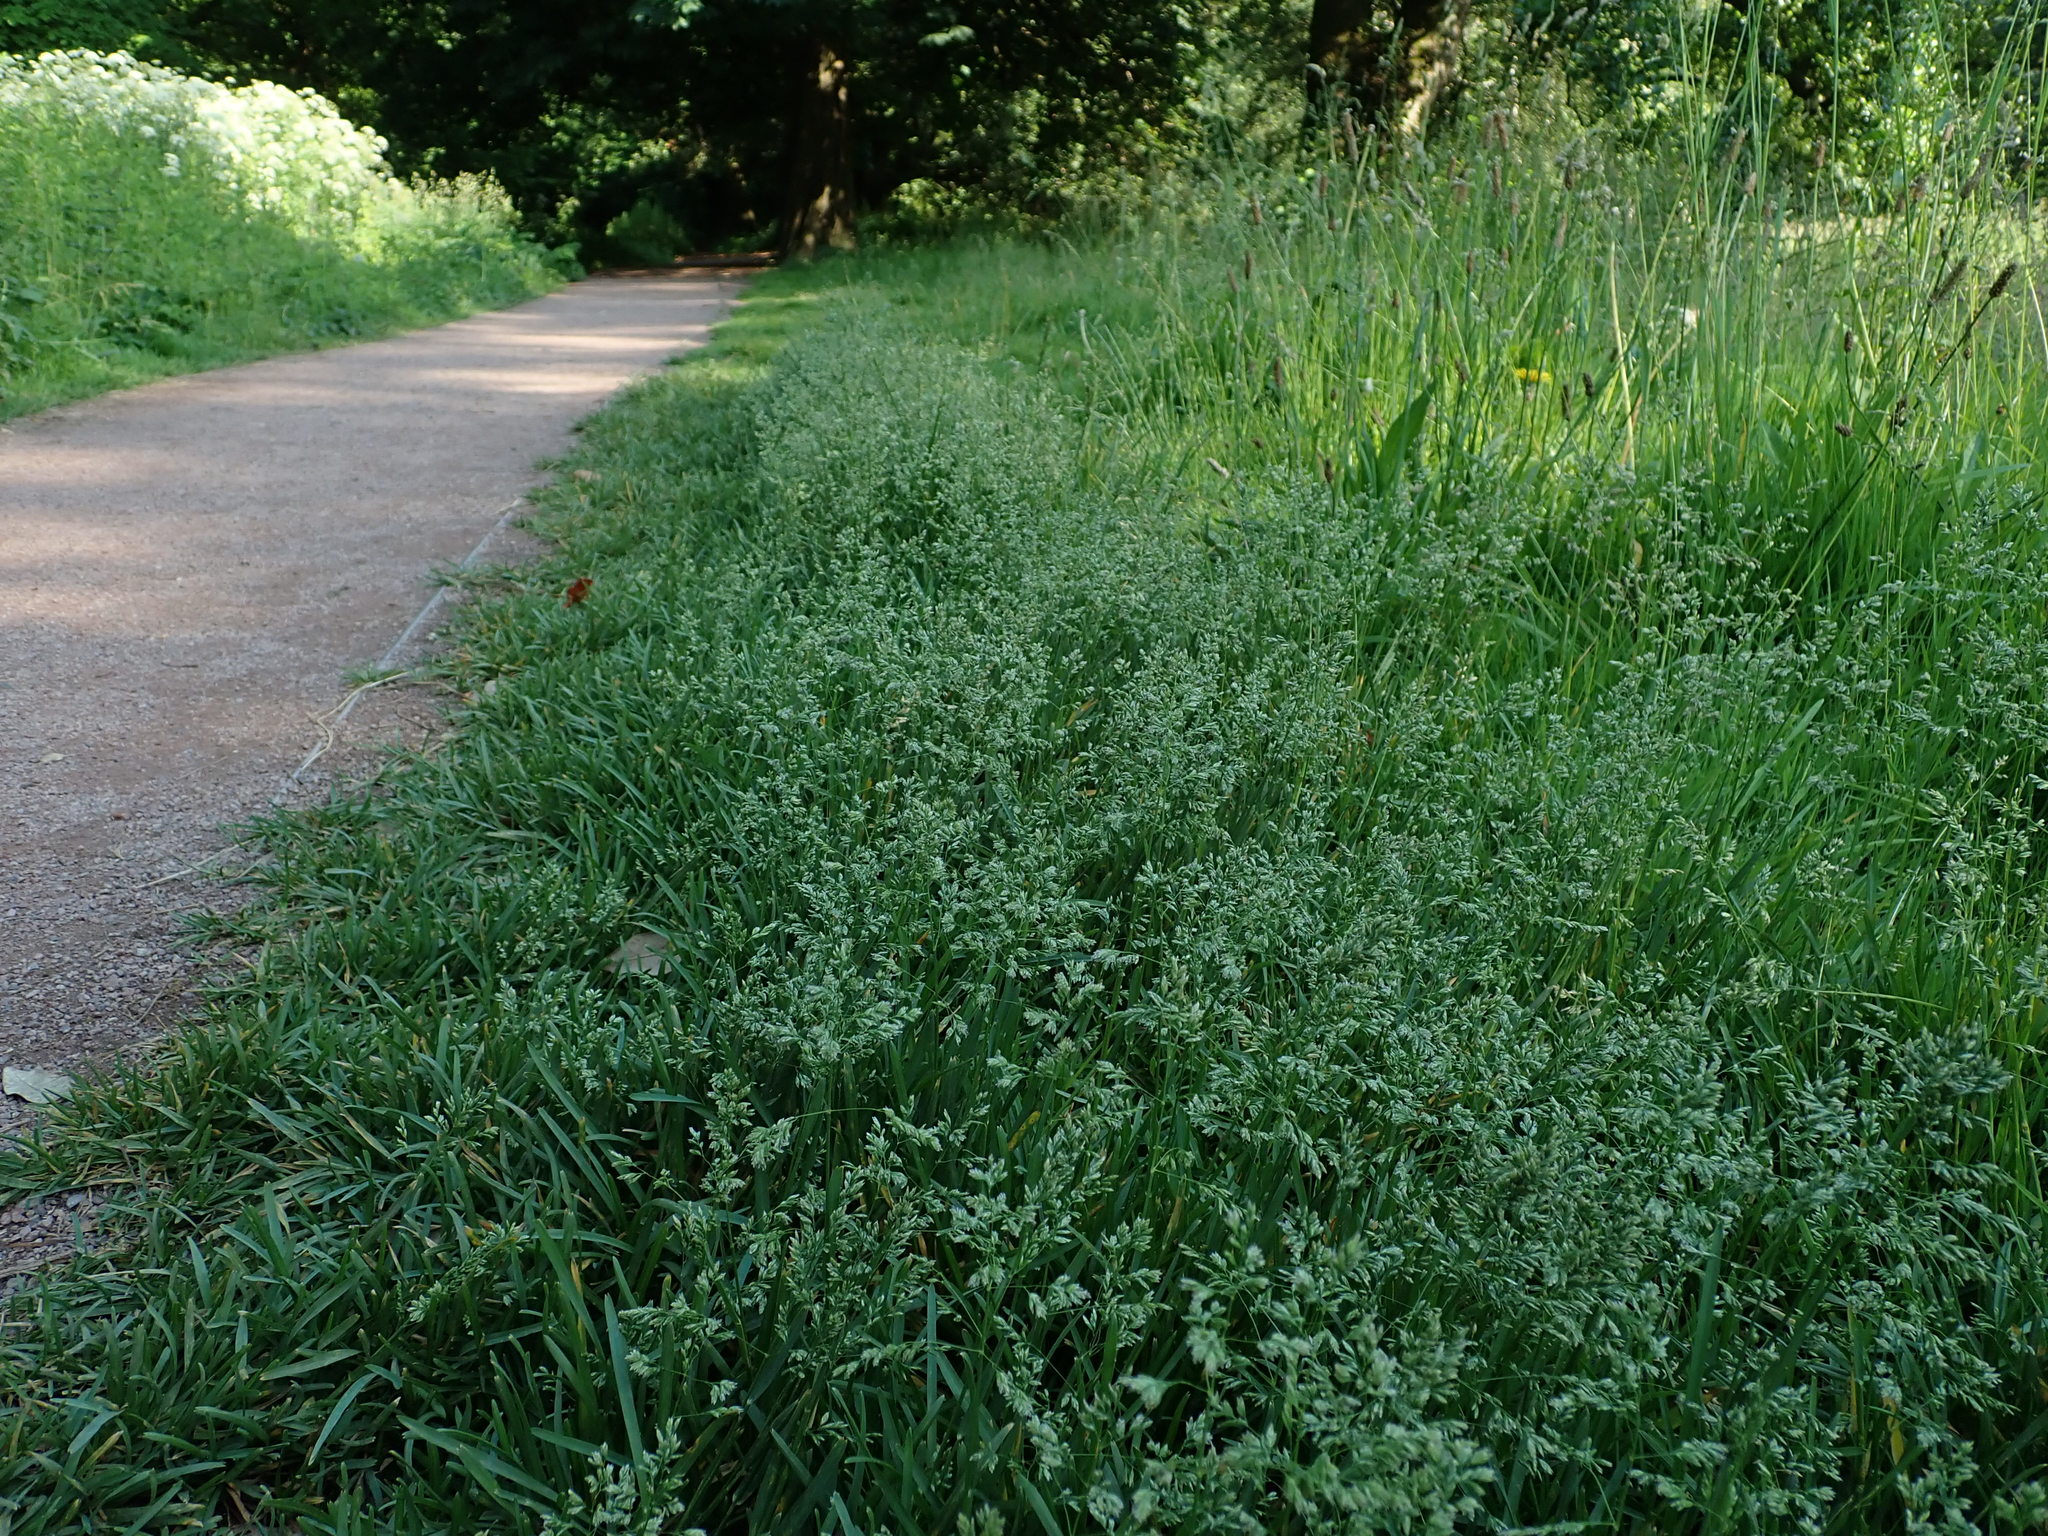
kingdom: Plantae
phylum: Tracheophyta
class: Liliopsida
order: Poales
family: Poaceae
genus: Poa
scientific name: Poa annua
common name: Annual bluegrass
